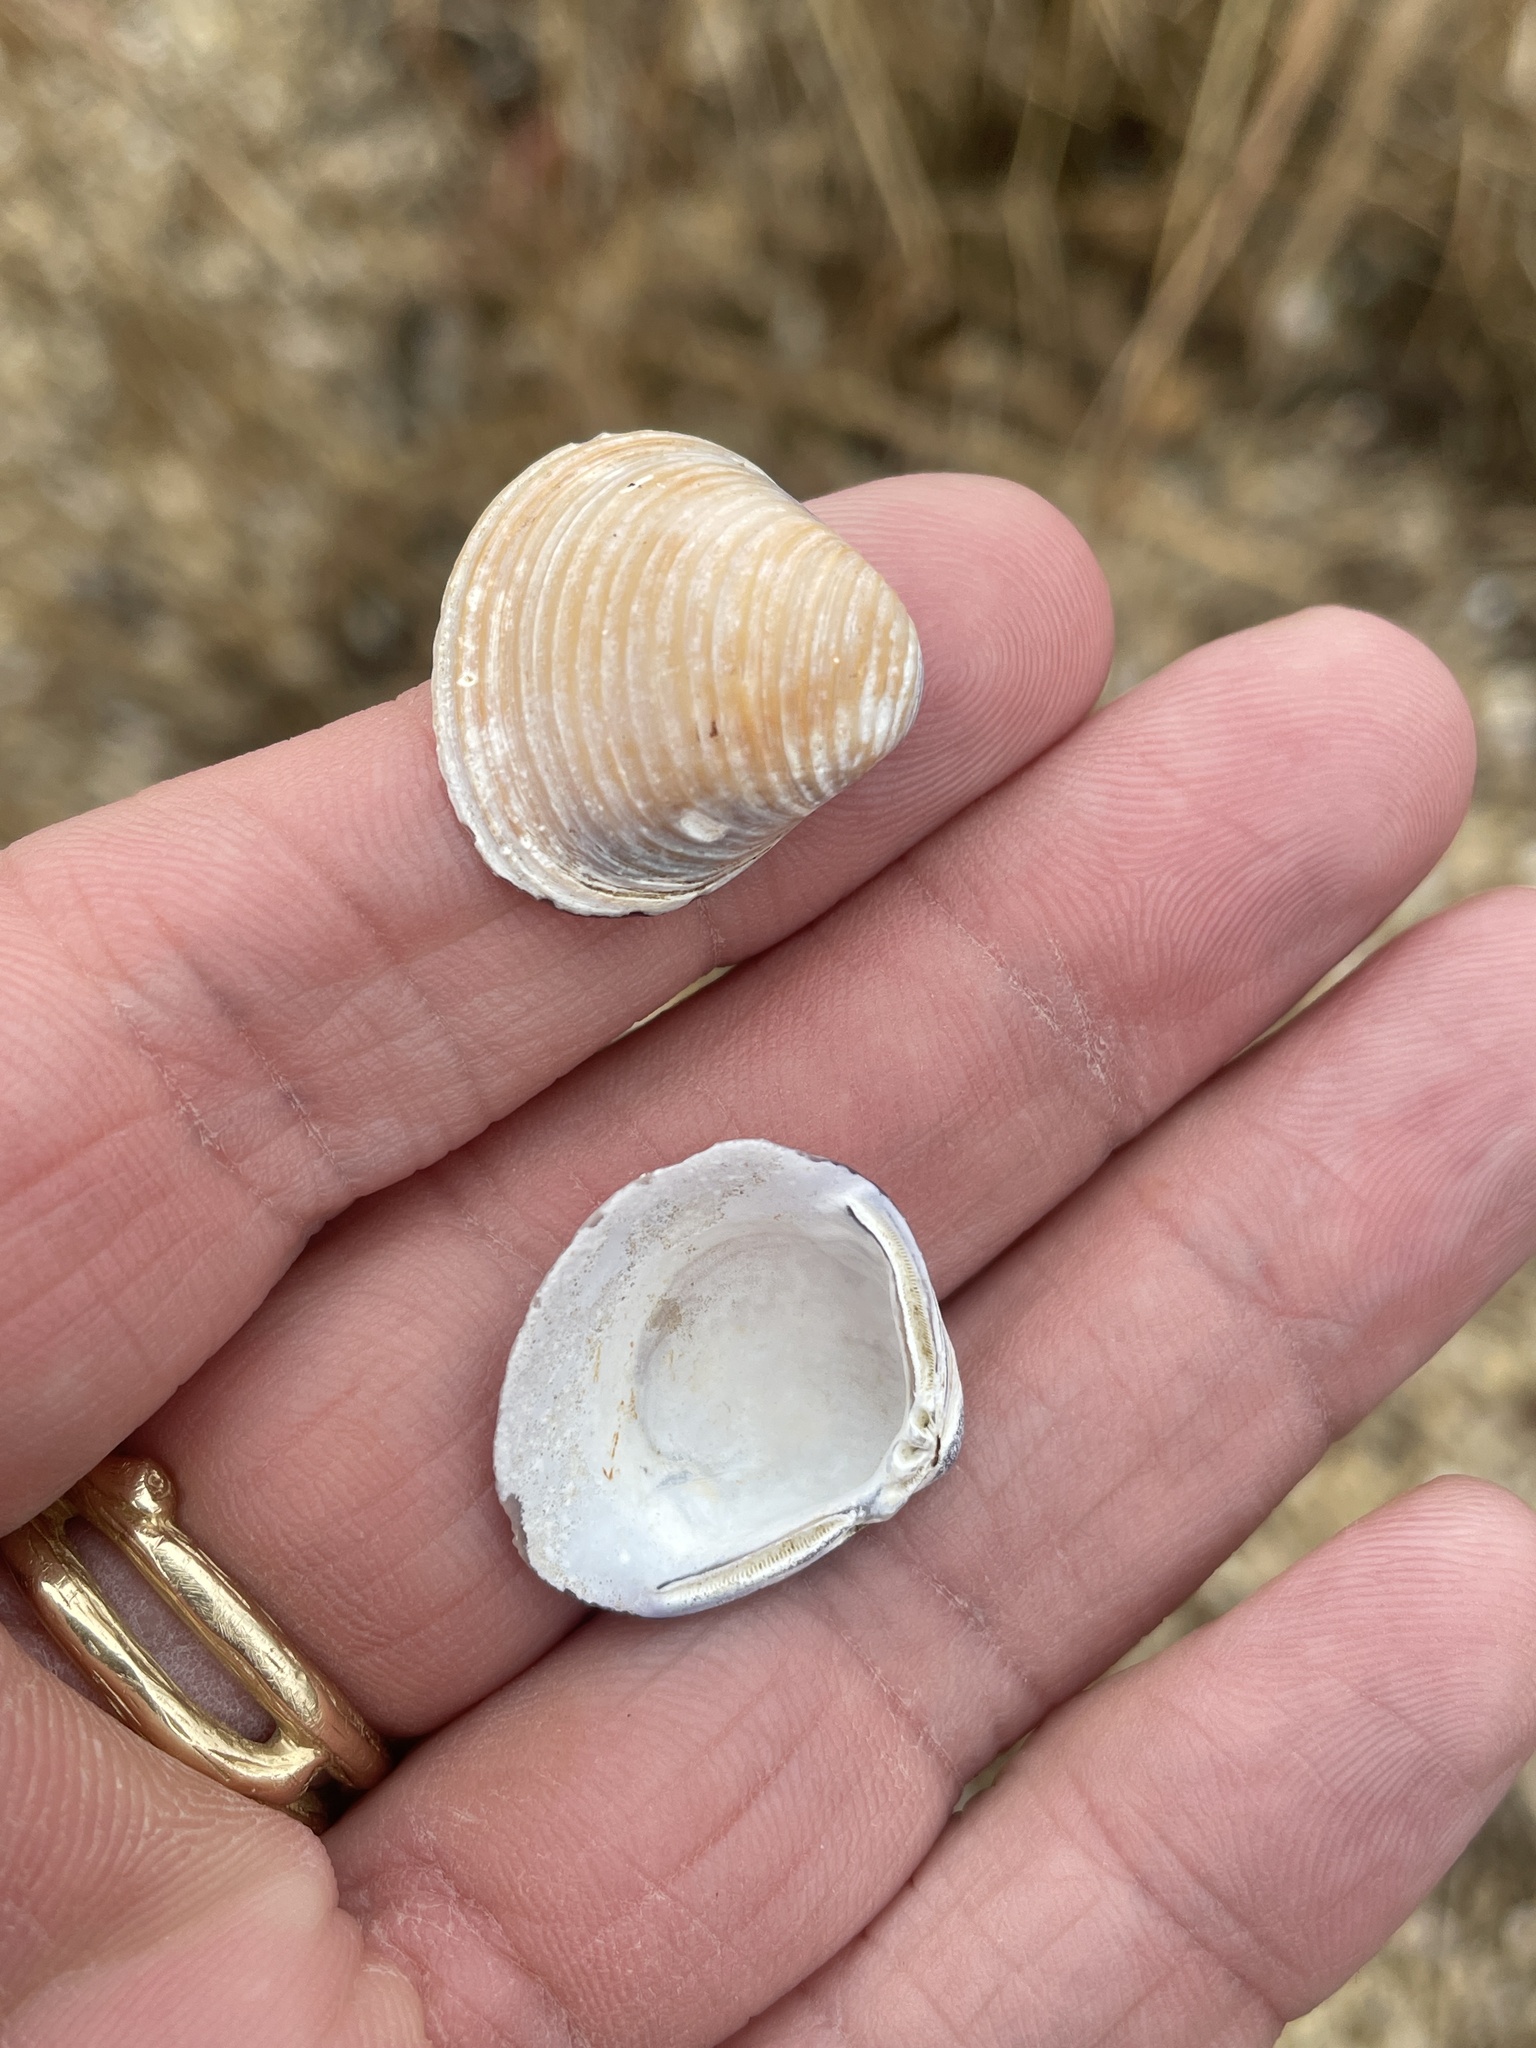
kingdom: Animalia
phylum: Mollusca
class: Bivalvia
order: Venerida
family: Cyrenidae
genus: Corbicula
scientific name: Corbicula fluminea
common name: Asian clam
